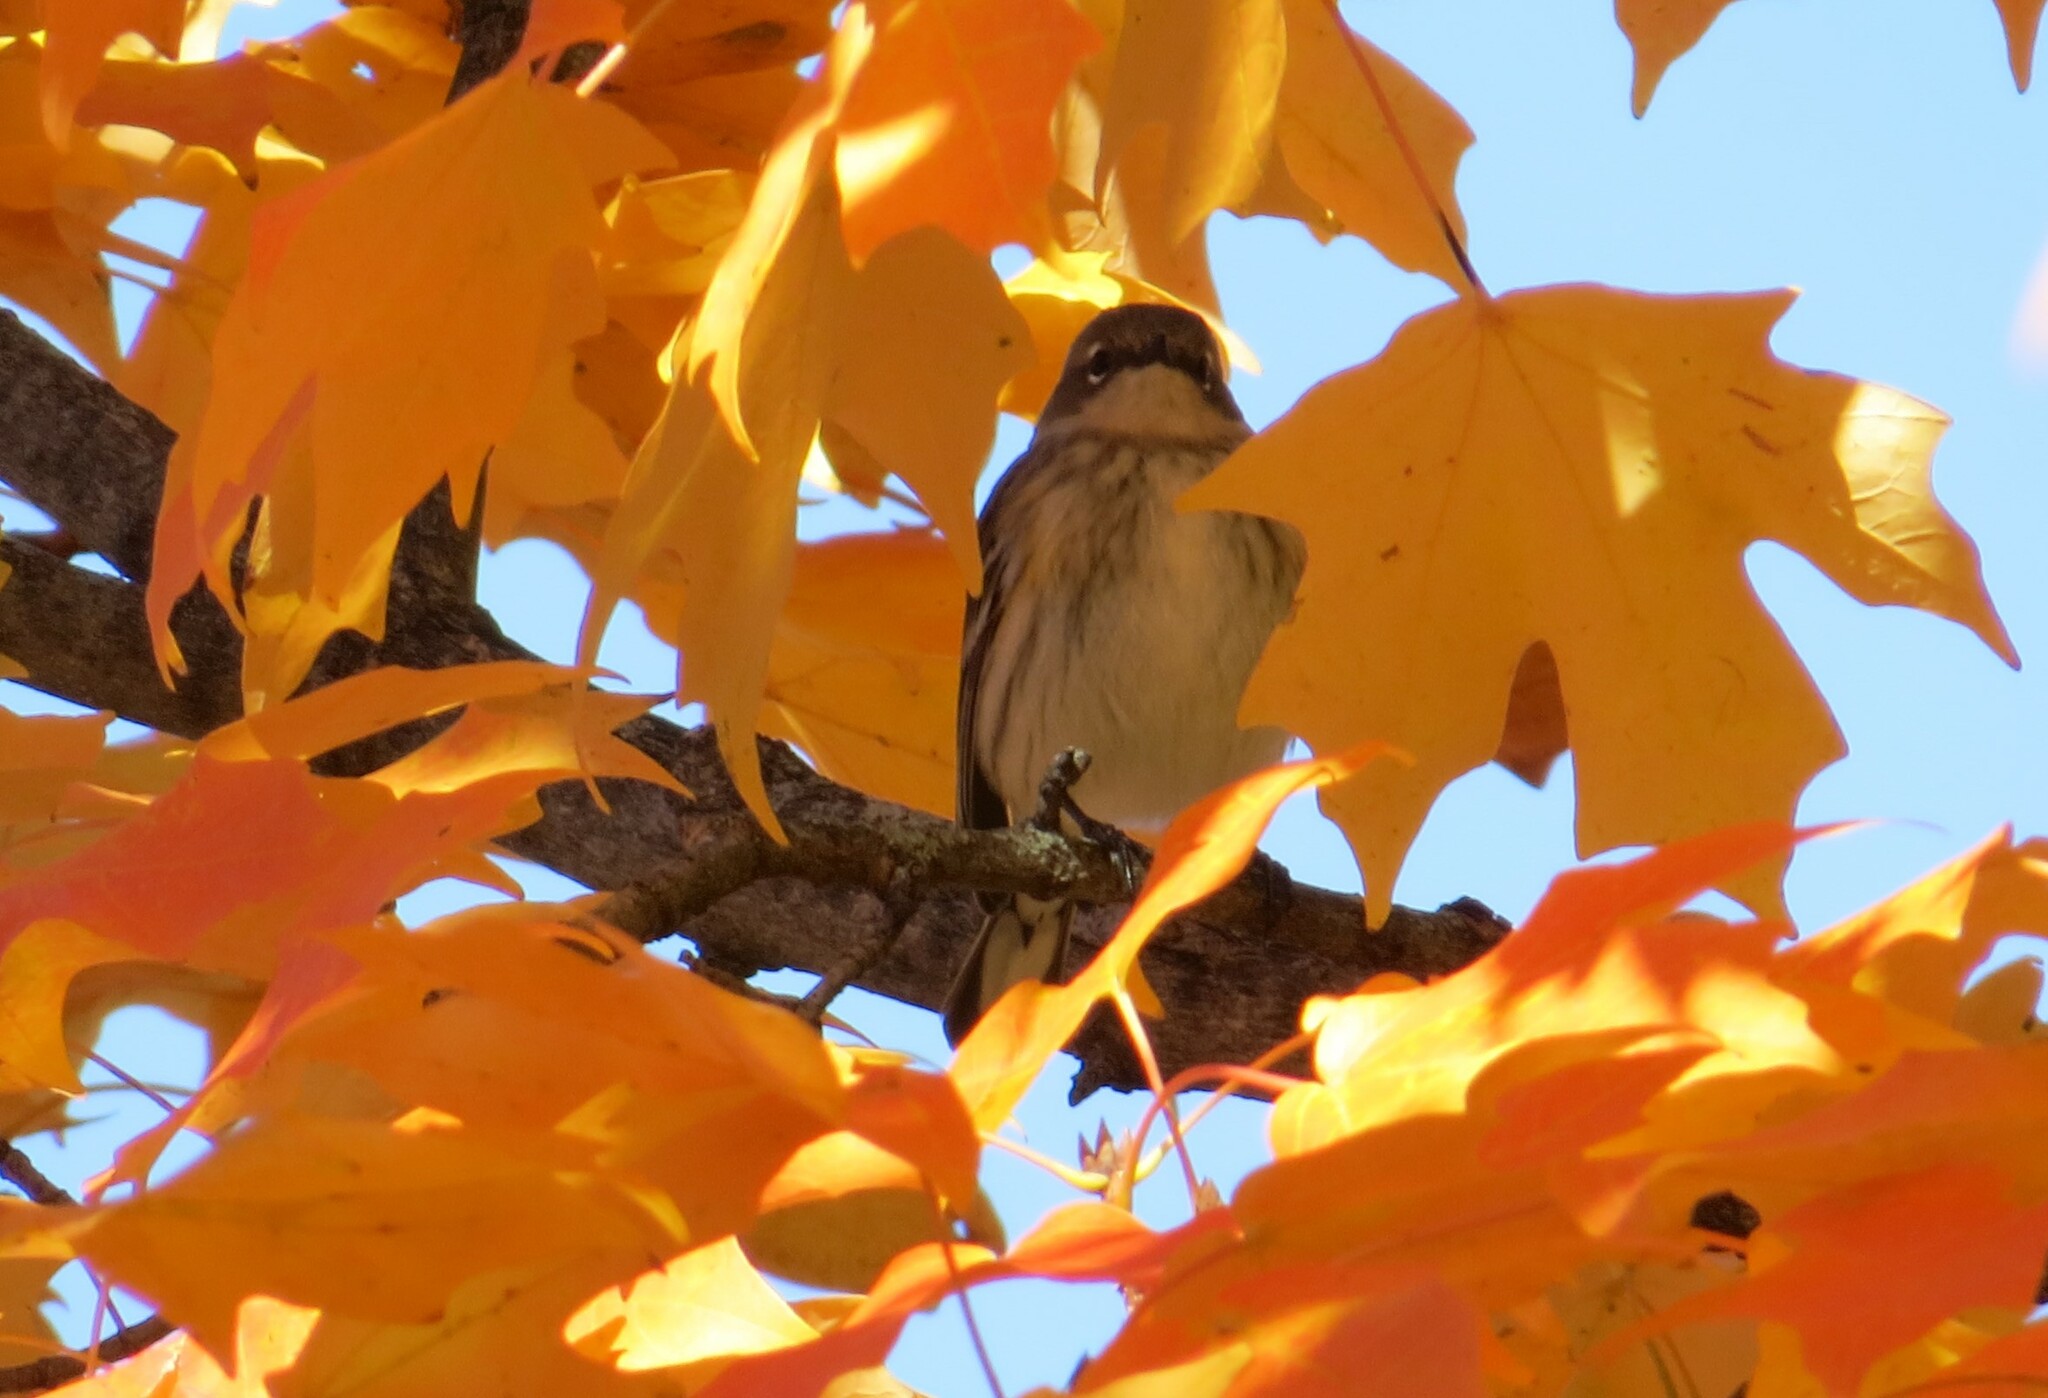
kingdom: Animalia
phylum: Chordata
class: Aves
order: Passeriformes
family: Parulidae
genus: Setophaga
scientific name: Setophaga coronata
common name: Myrtle warbler
